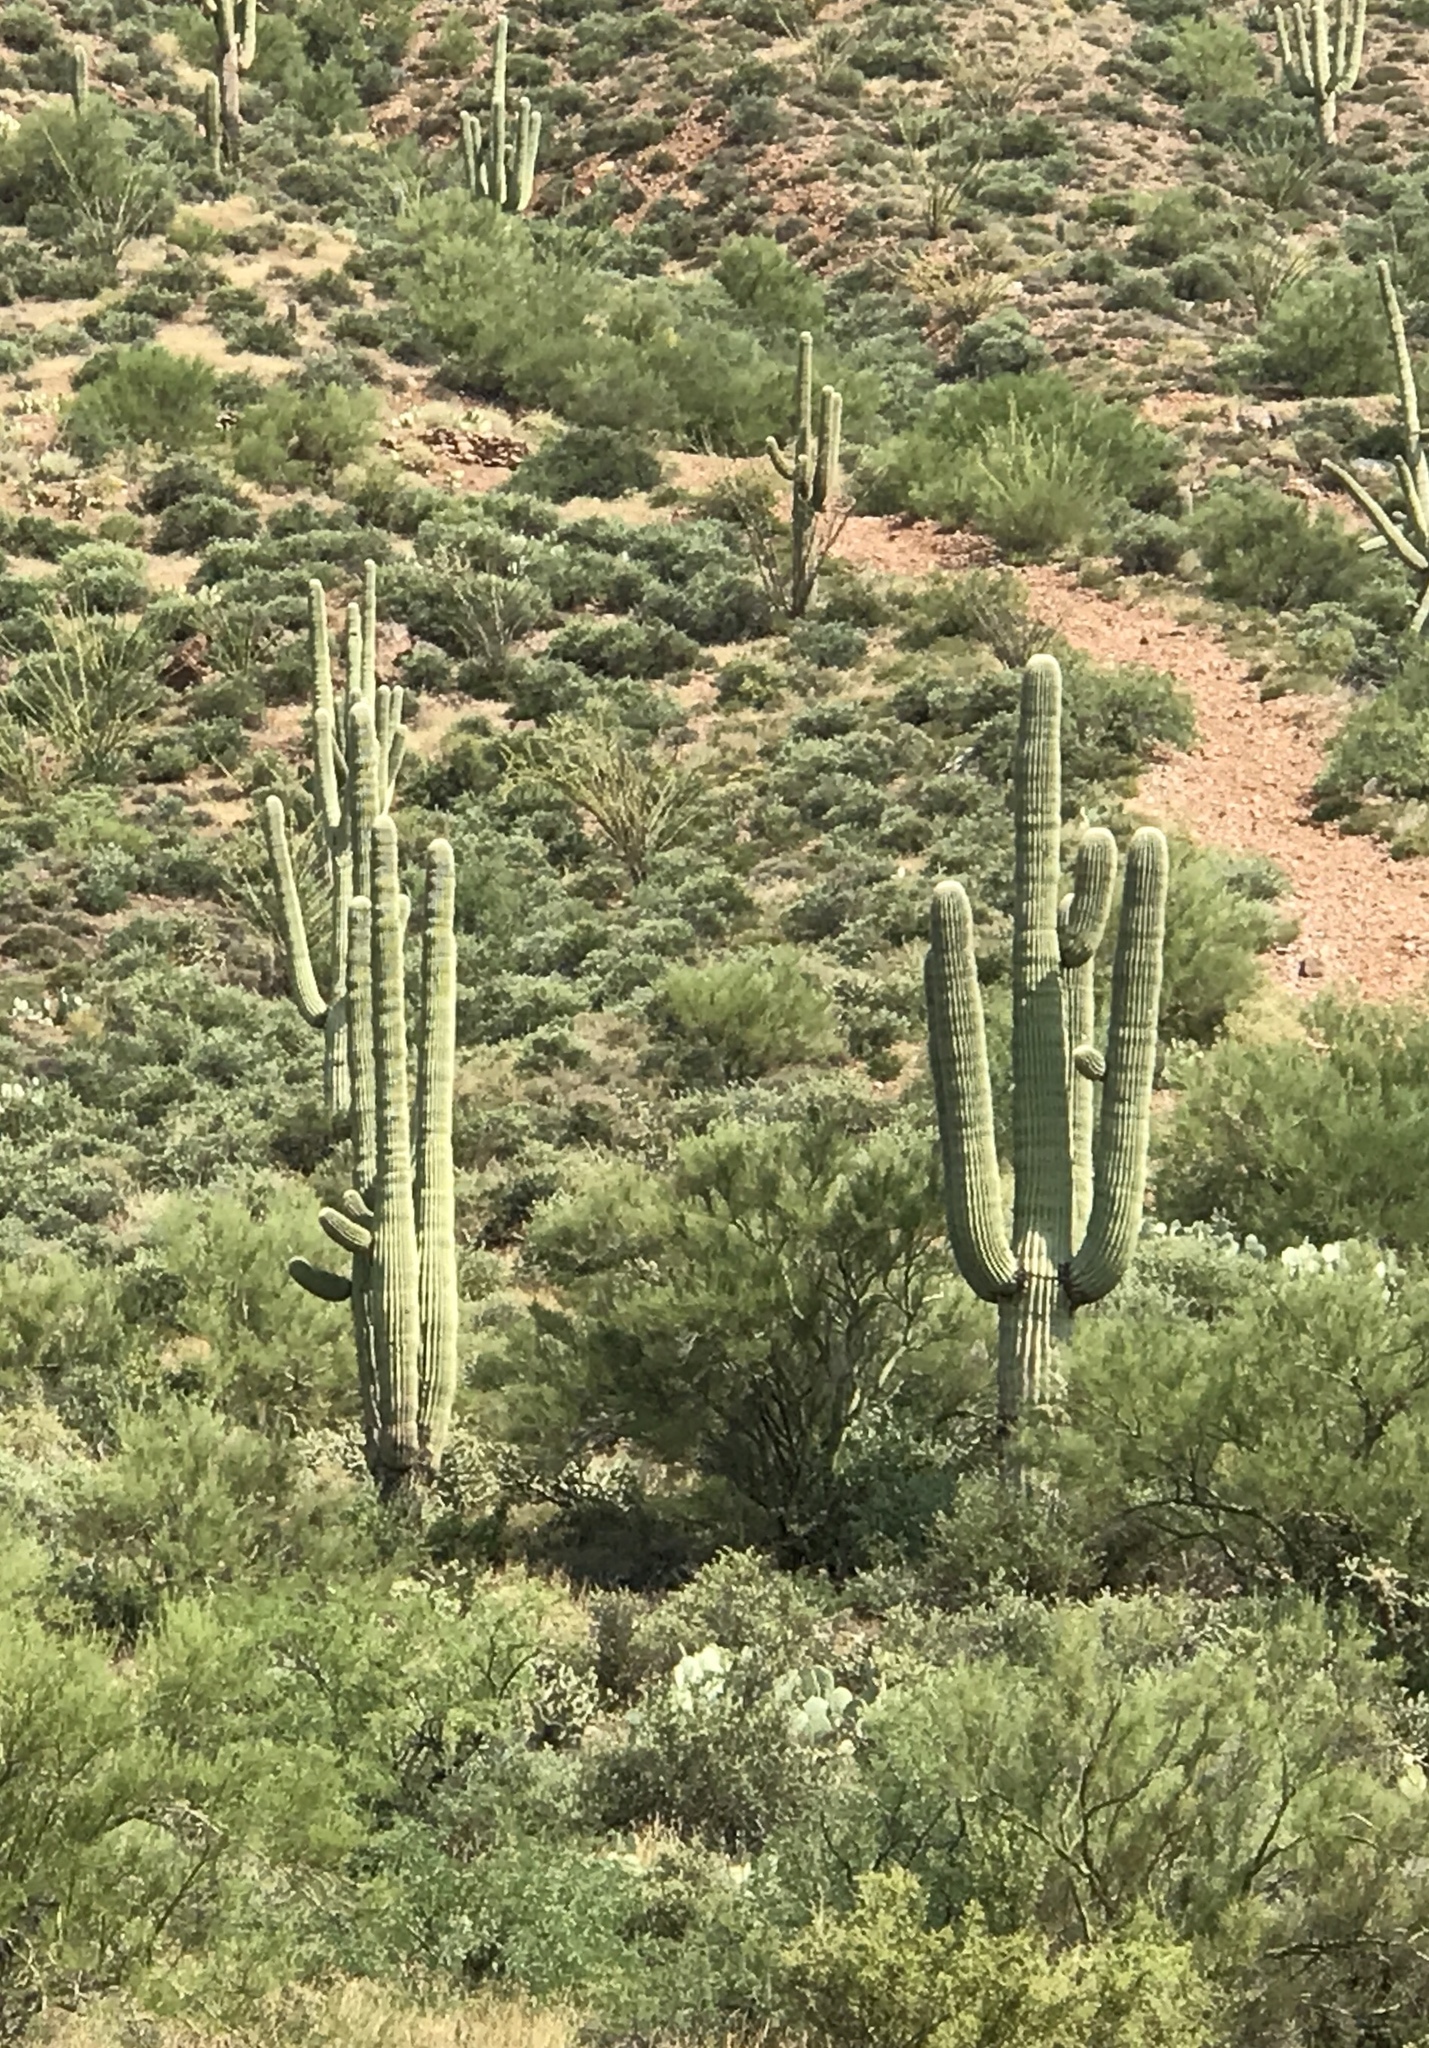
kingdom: Plantae
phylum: Tracheophyta
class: Magnoliopsida
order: Caryophyllales
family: Cactaceae
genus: Carnegiea
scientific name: Carnegiea gigantea
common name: Saguaro
